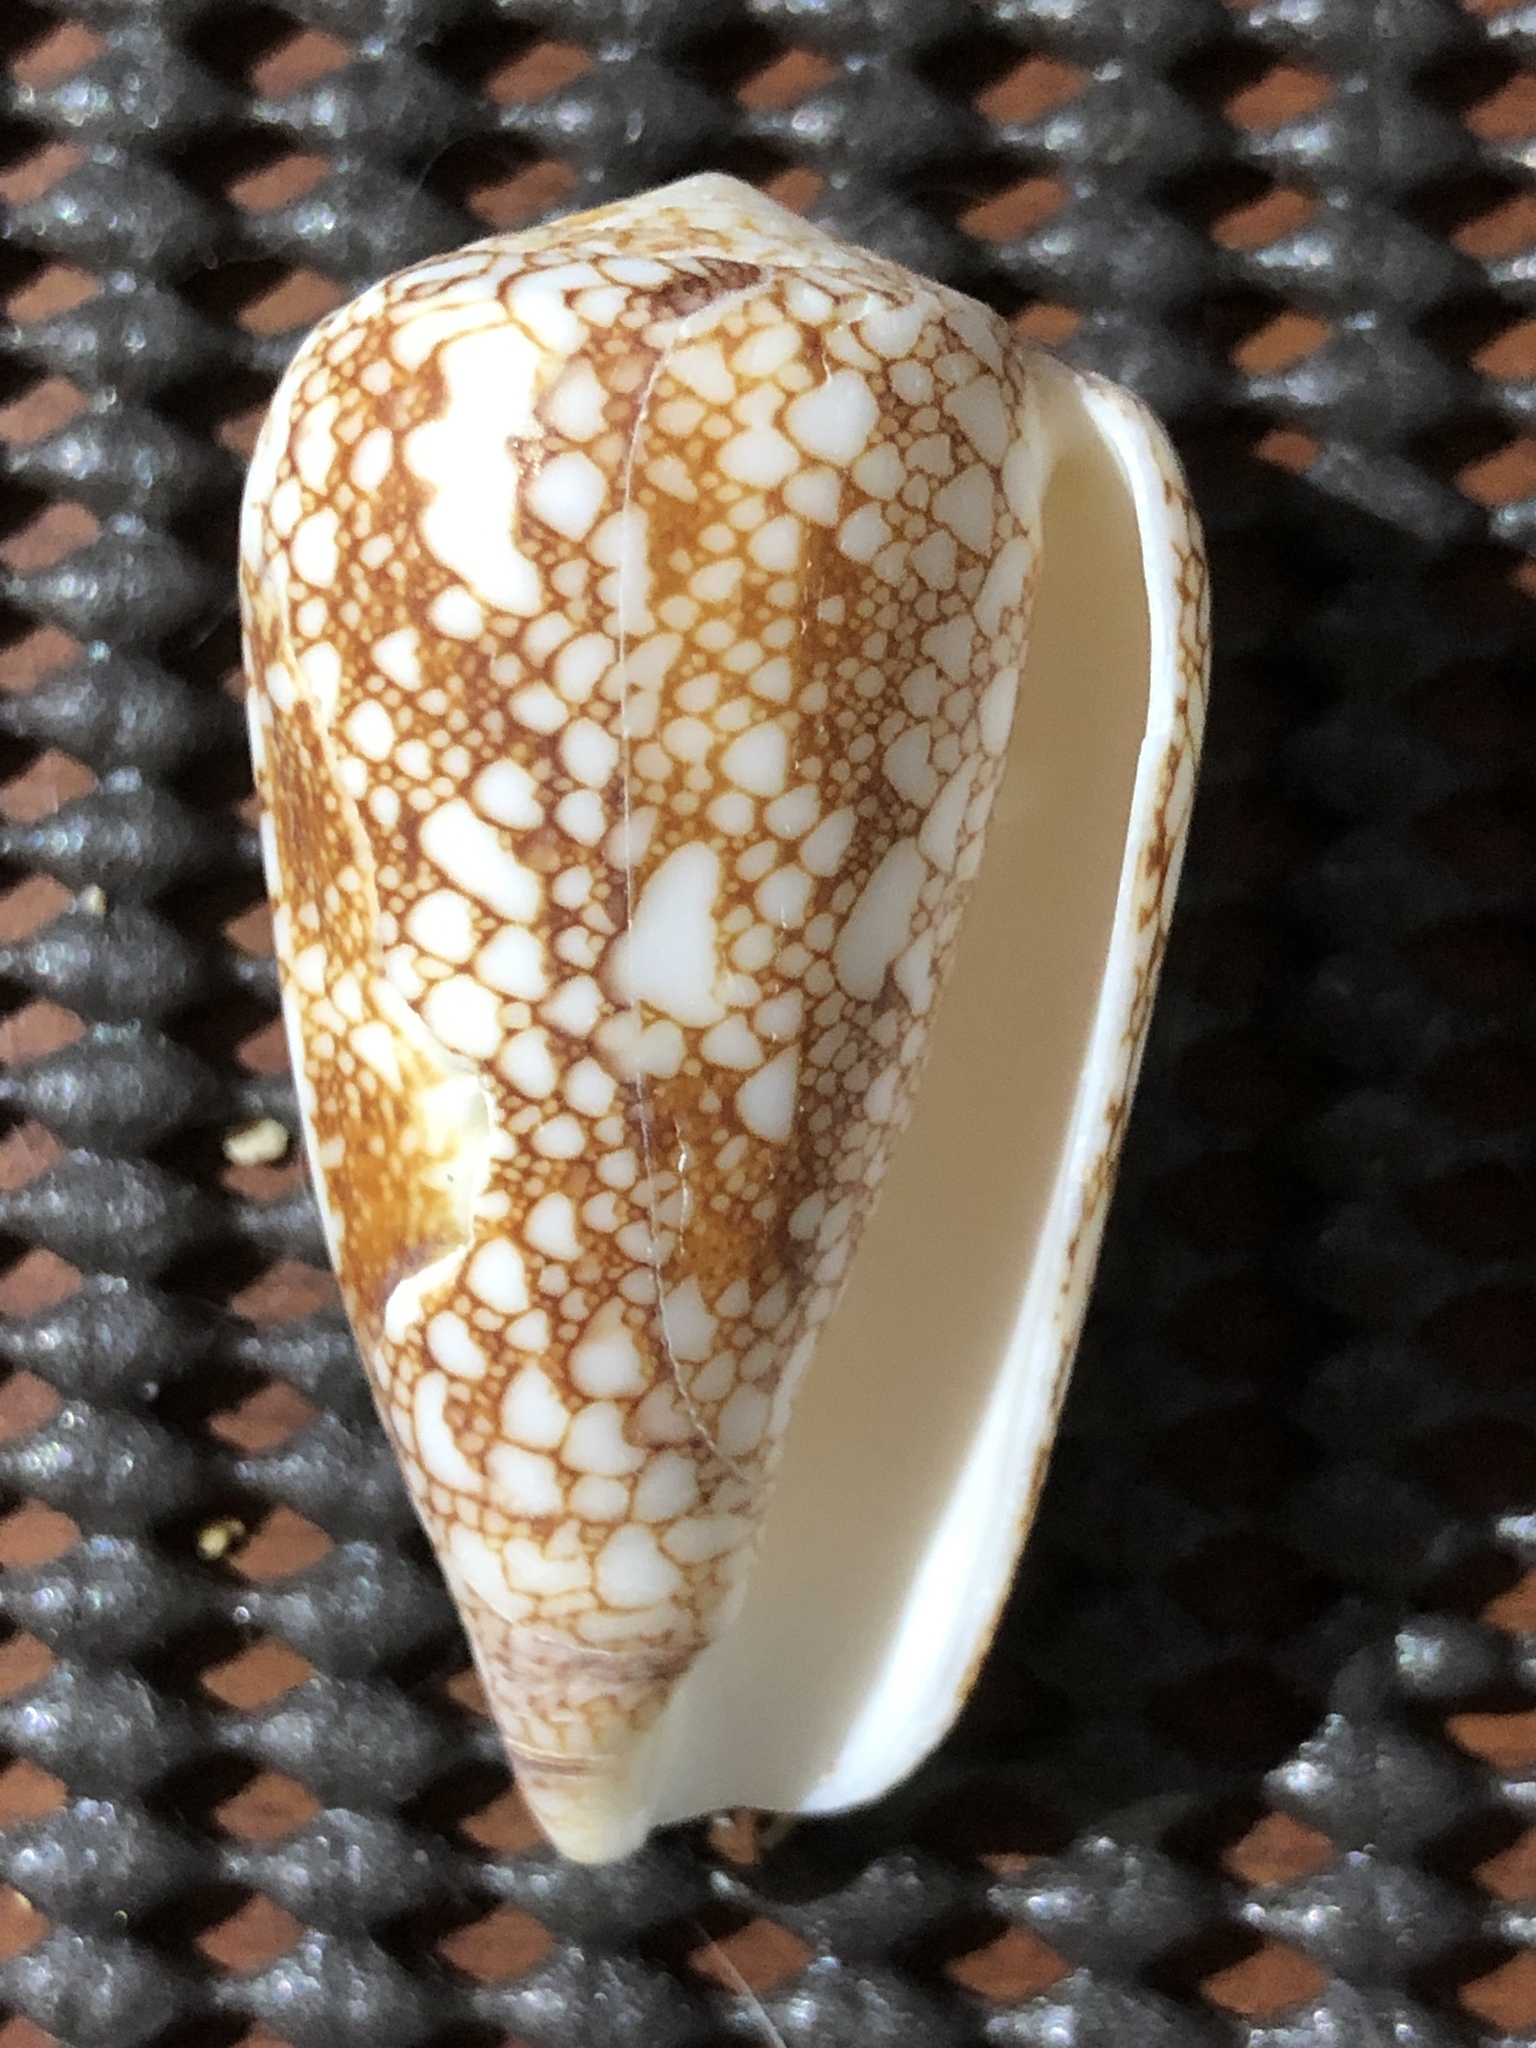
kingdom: Animalia
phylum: Mollusca
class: Gastropoda
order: Neogastropoda
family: Conidae
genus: Conus
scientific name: Conus omaria
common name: Omaria cone
